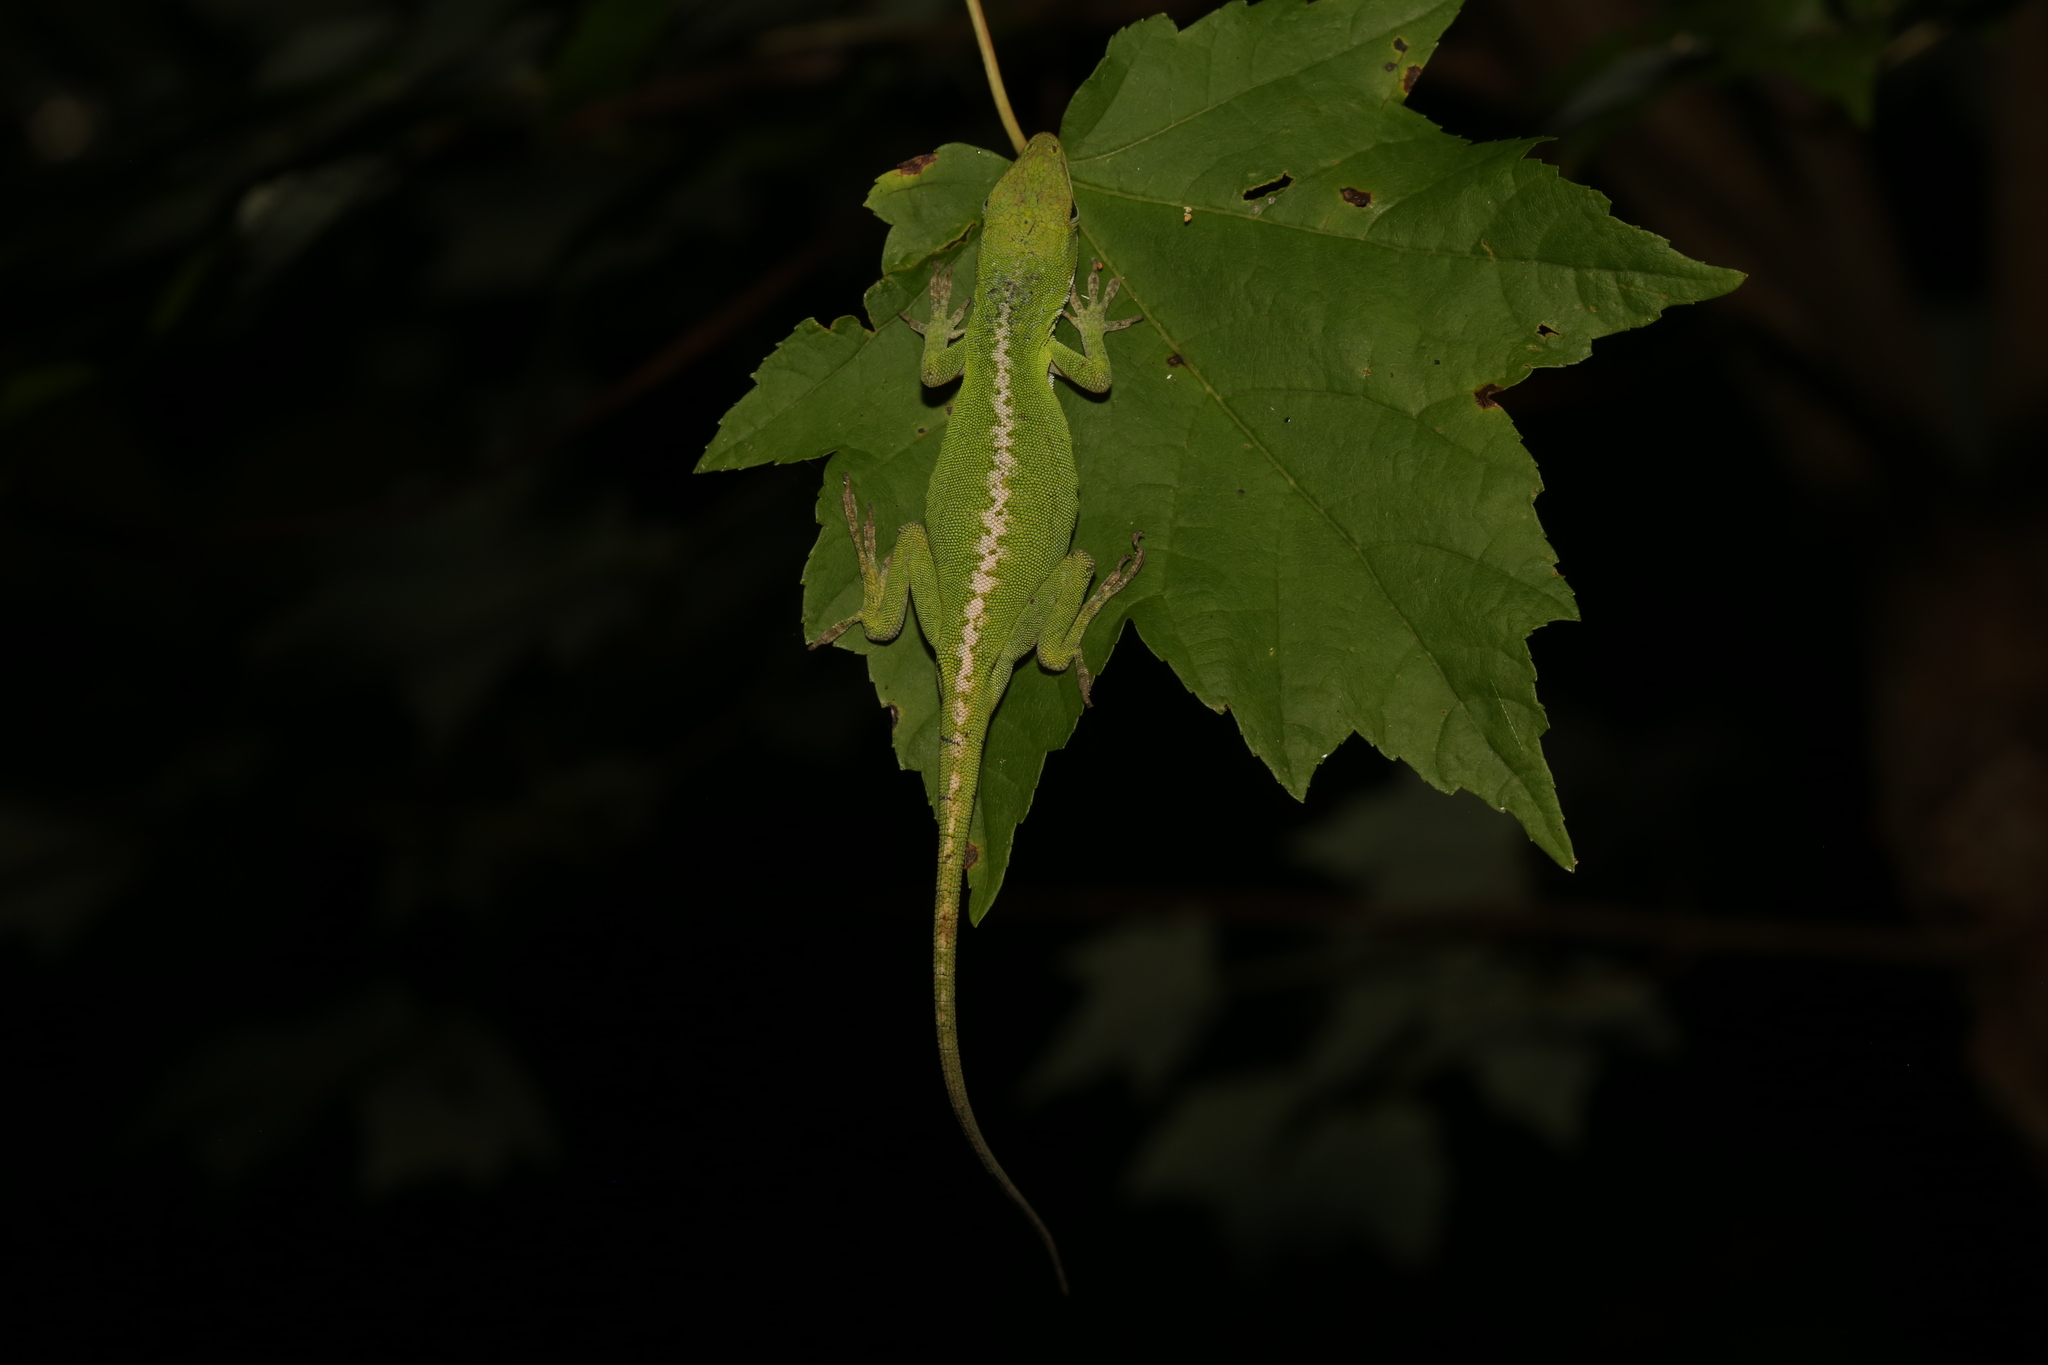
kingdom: Animalia
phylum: Chordata
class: Squamata
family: Dactyloidae
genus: Anolis
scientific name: Anolis carolinensis
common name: Green anole
